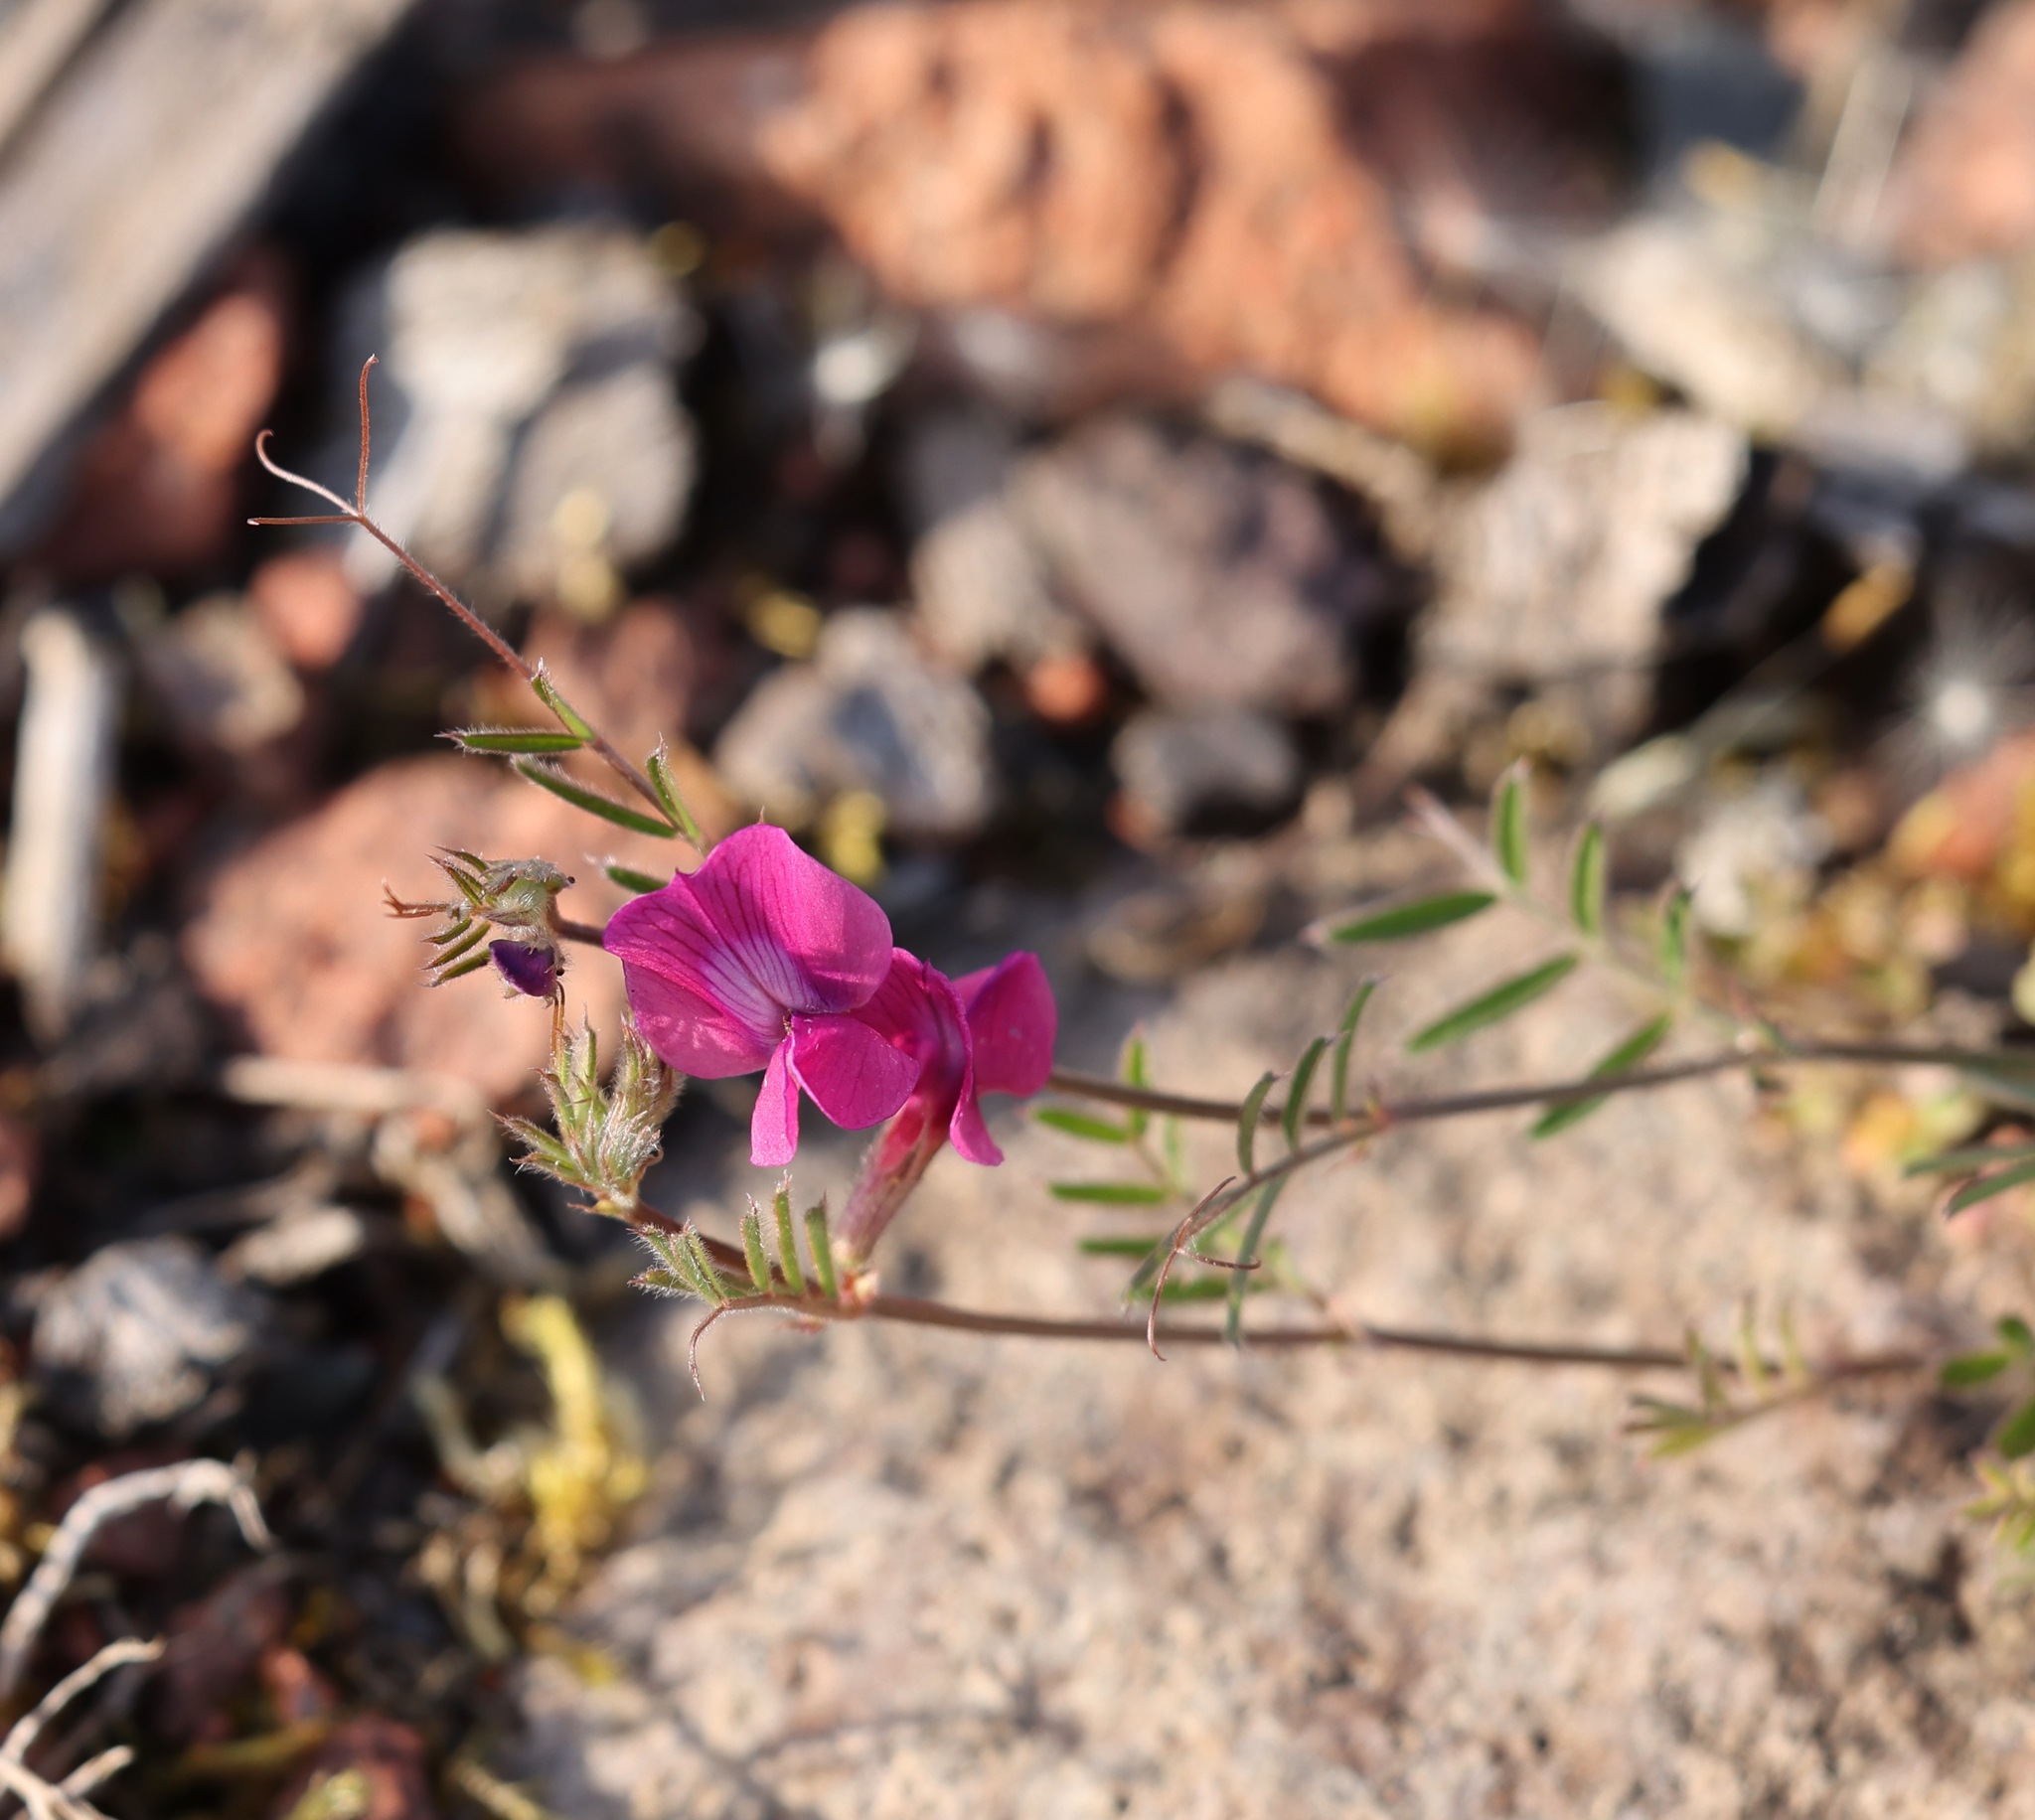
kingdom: Plantae
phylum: Tracheophyta
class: Magnoliopsida
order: Fabales
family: Fabaceae
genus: Vicia
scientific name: Vicia sativa
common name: Garden vetch
